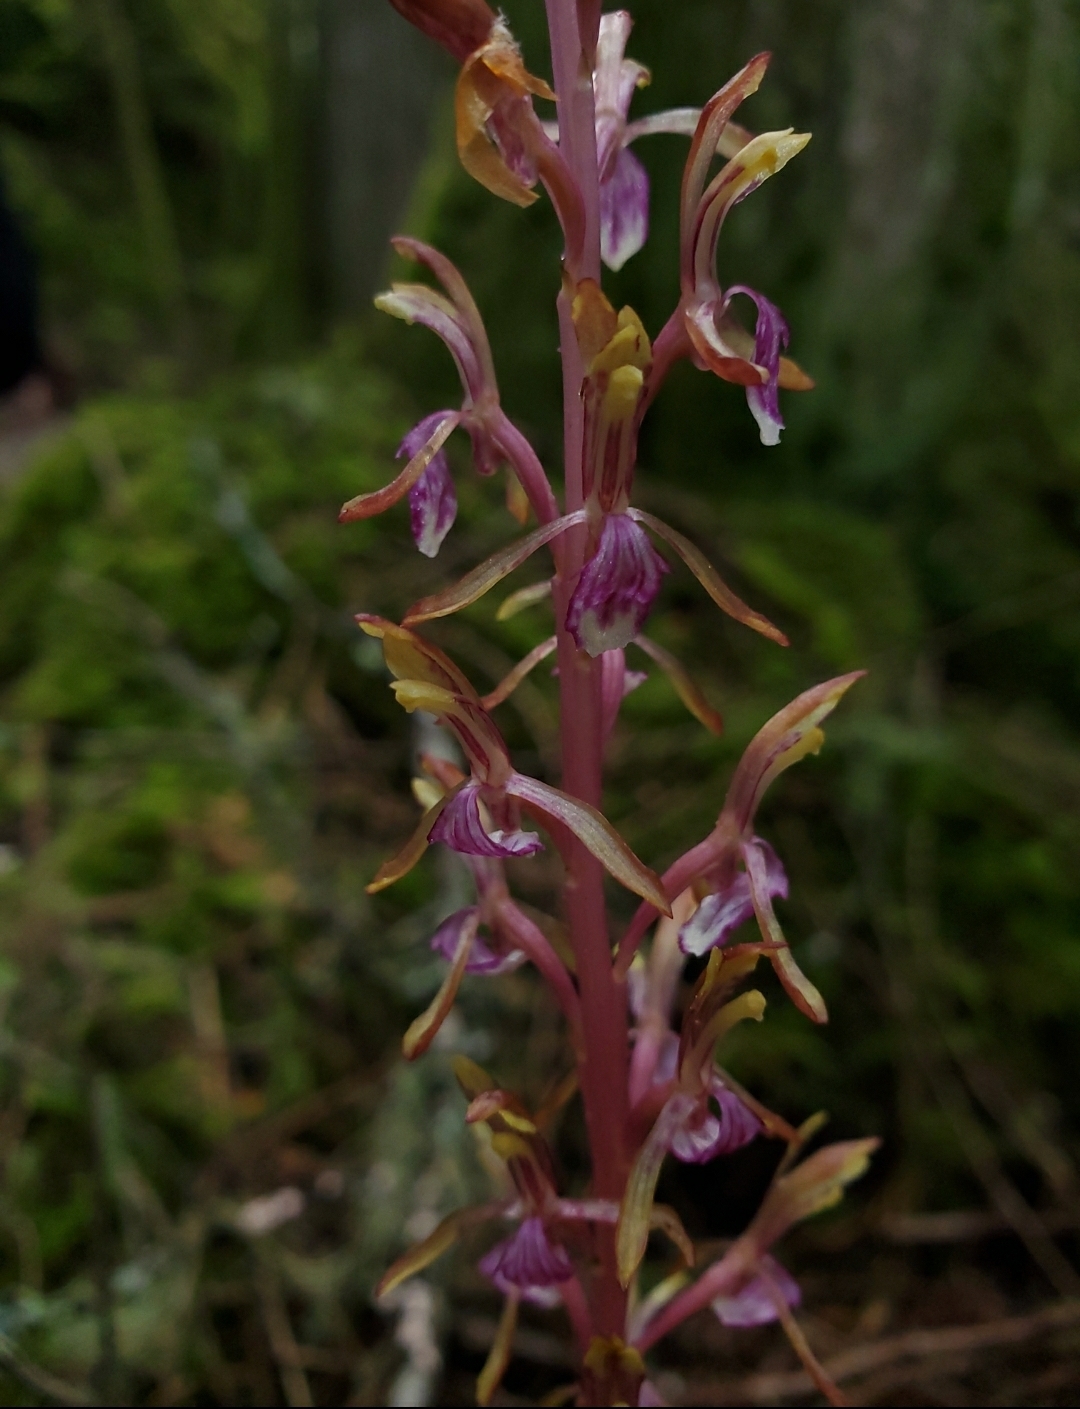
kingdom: Plantae
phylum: Tracheophyta
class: Liliopsida
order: Asparagales
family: Orchidaceae
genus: Corallorhiza
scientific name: Corallorhiza mertensiana
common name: Pacific coralroot
